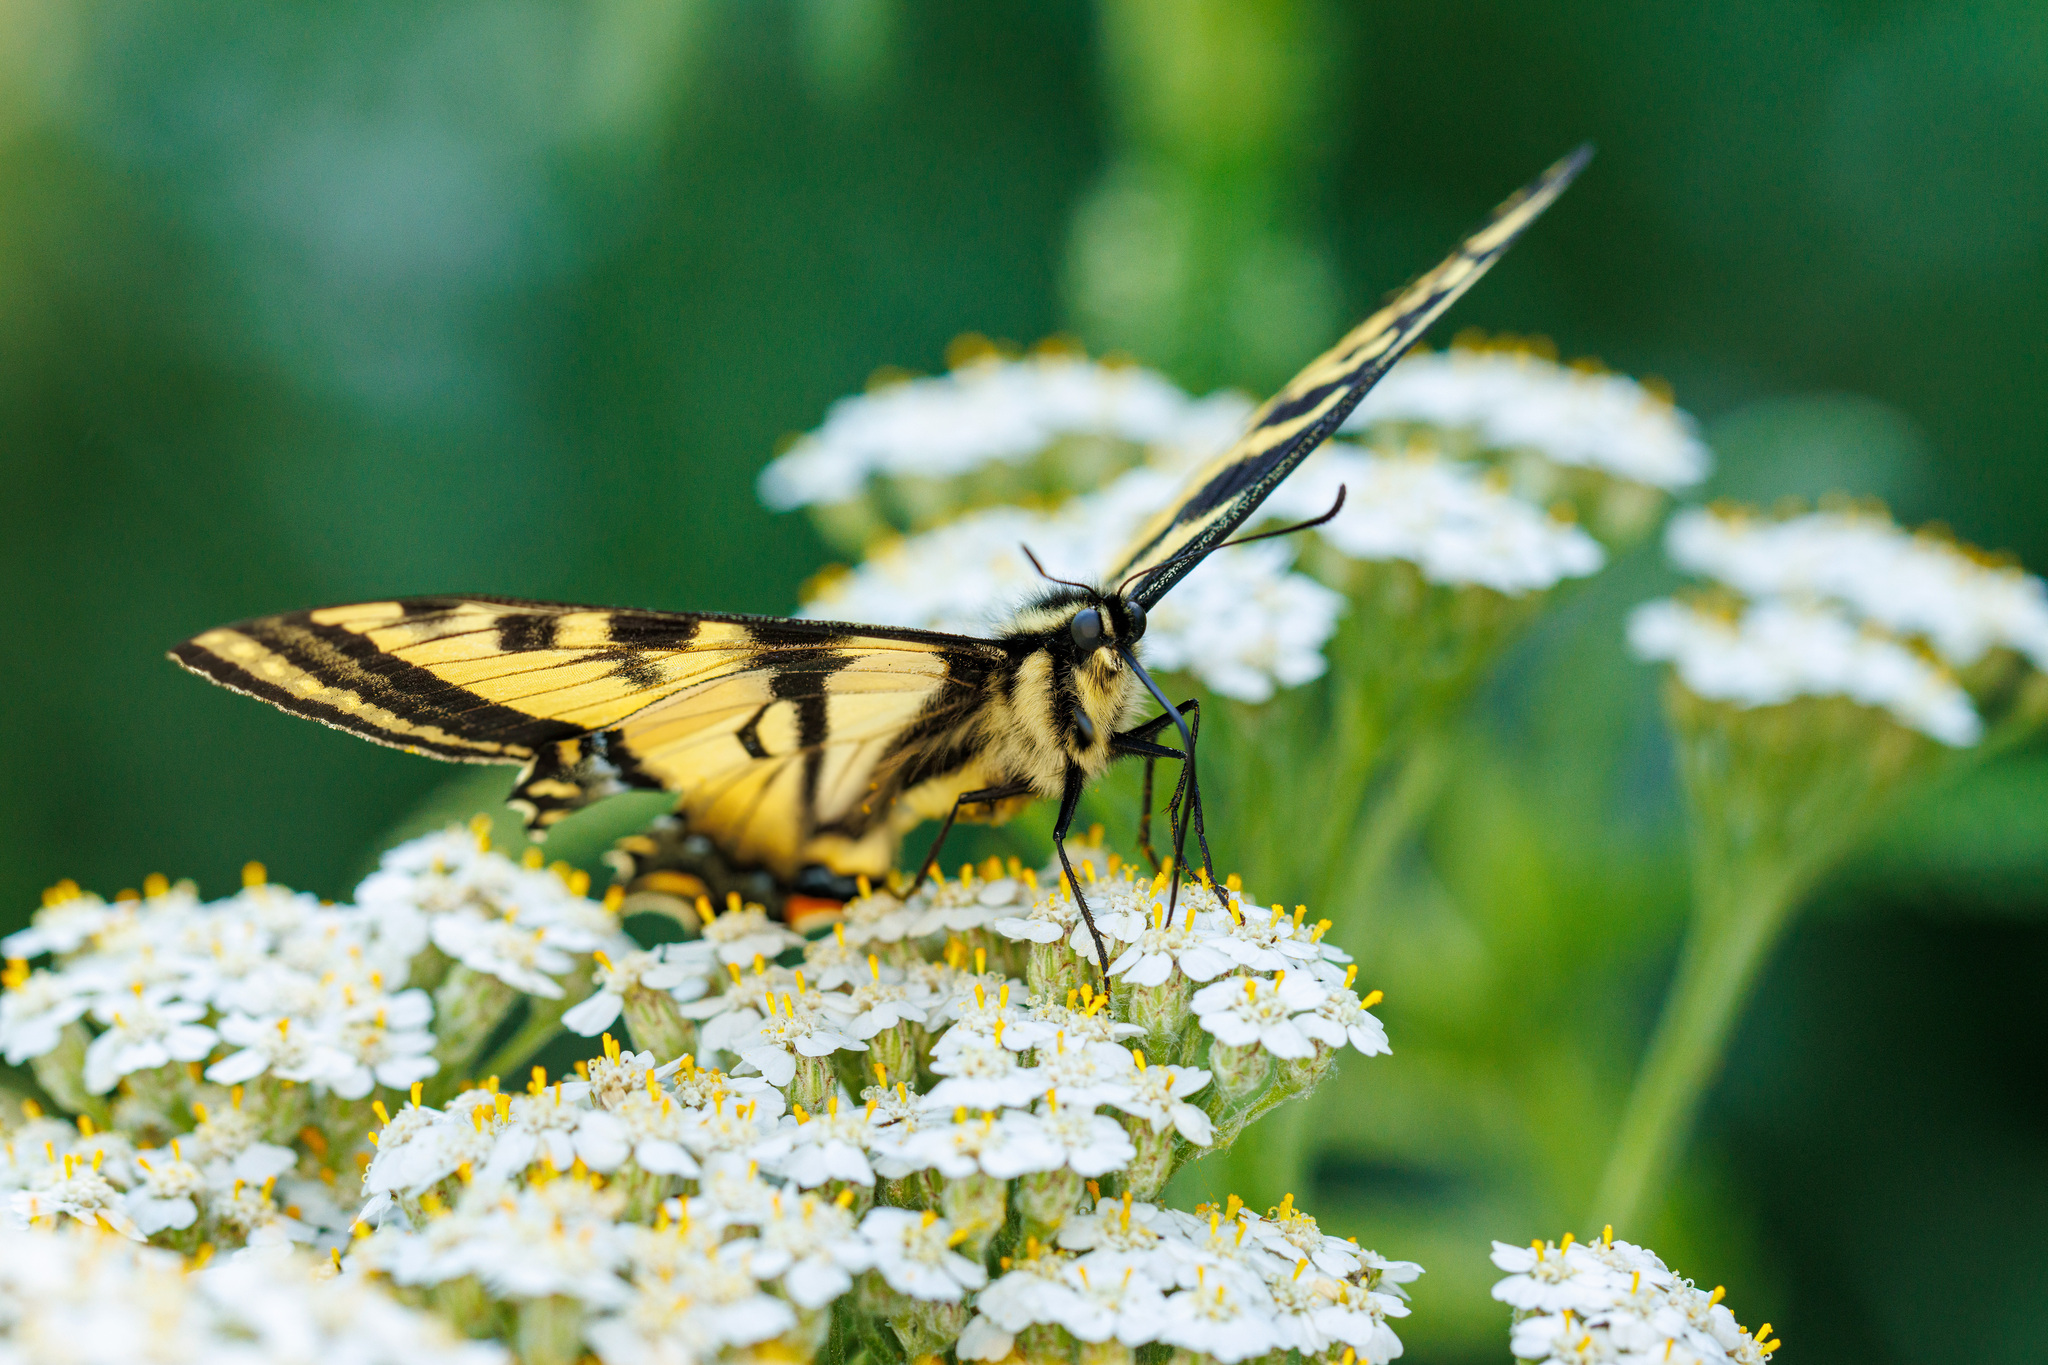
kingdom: Animalia
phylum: Arthropoda
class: Insecta
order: Lepidoptera
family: Papilionidae
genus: Papilio
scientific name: Papilio rutulus
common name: Western tiger swallowtail
